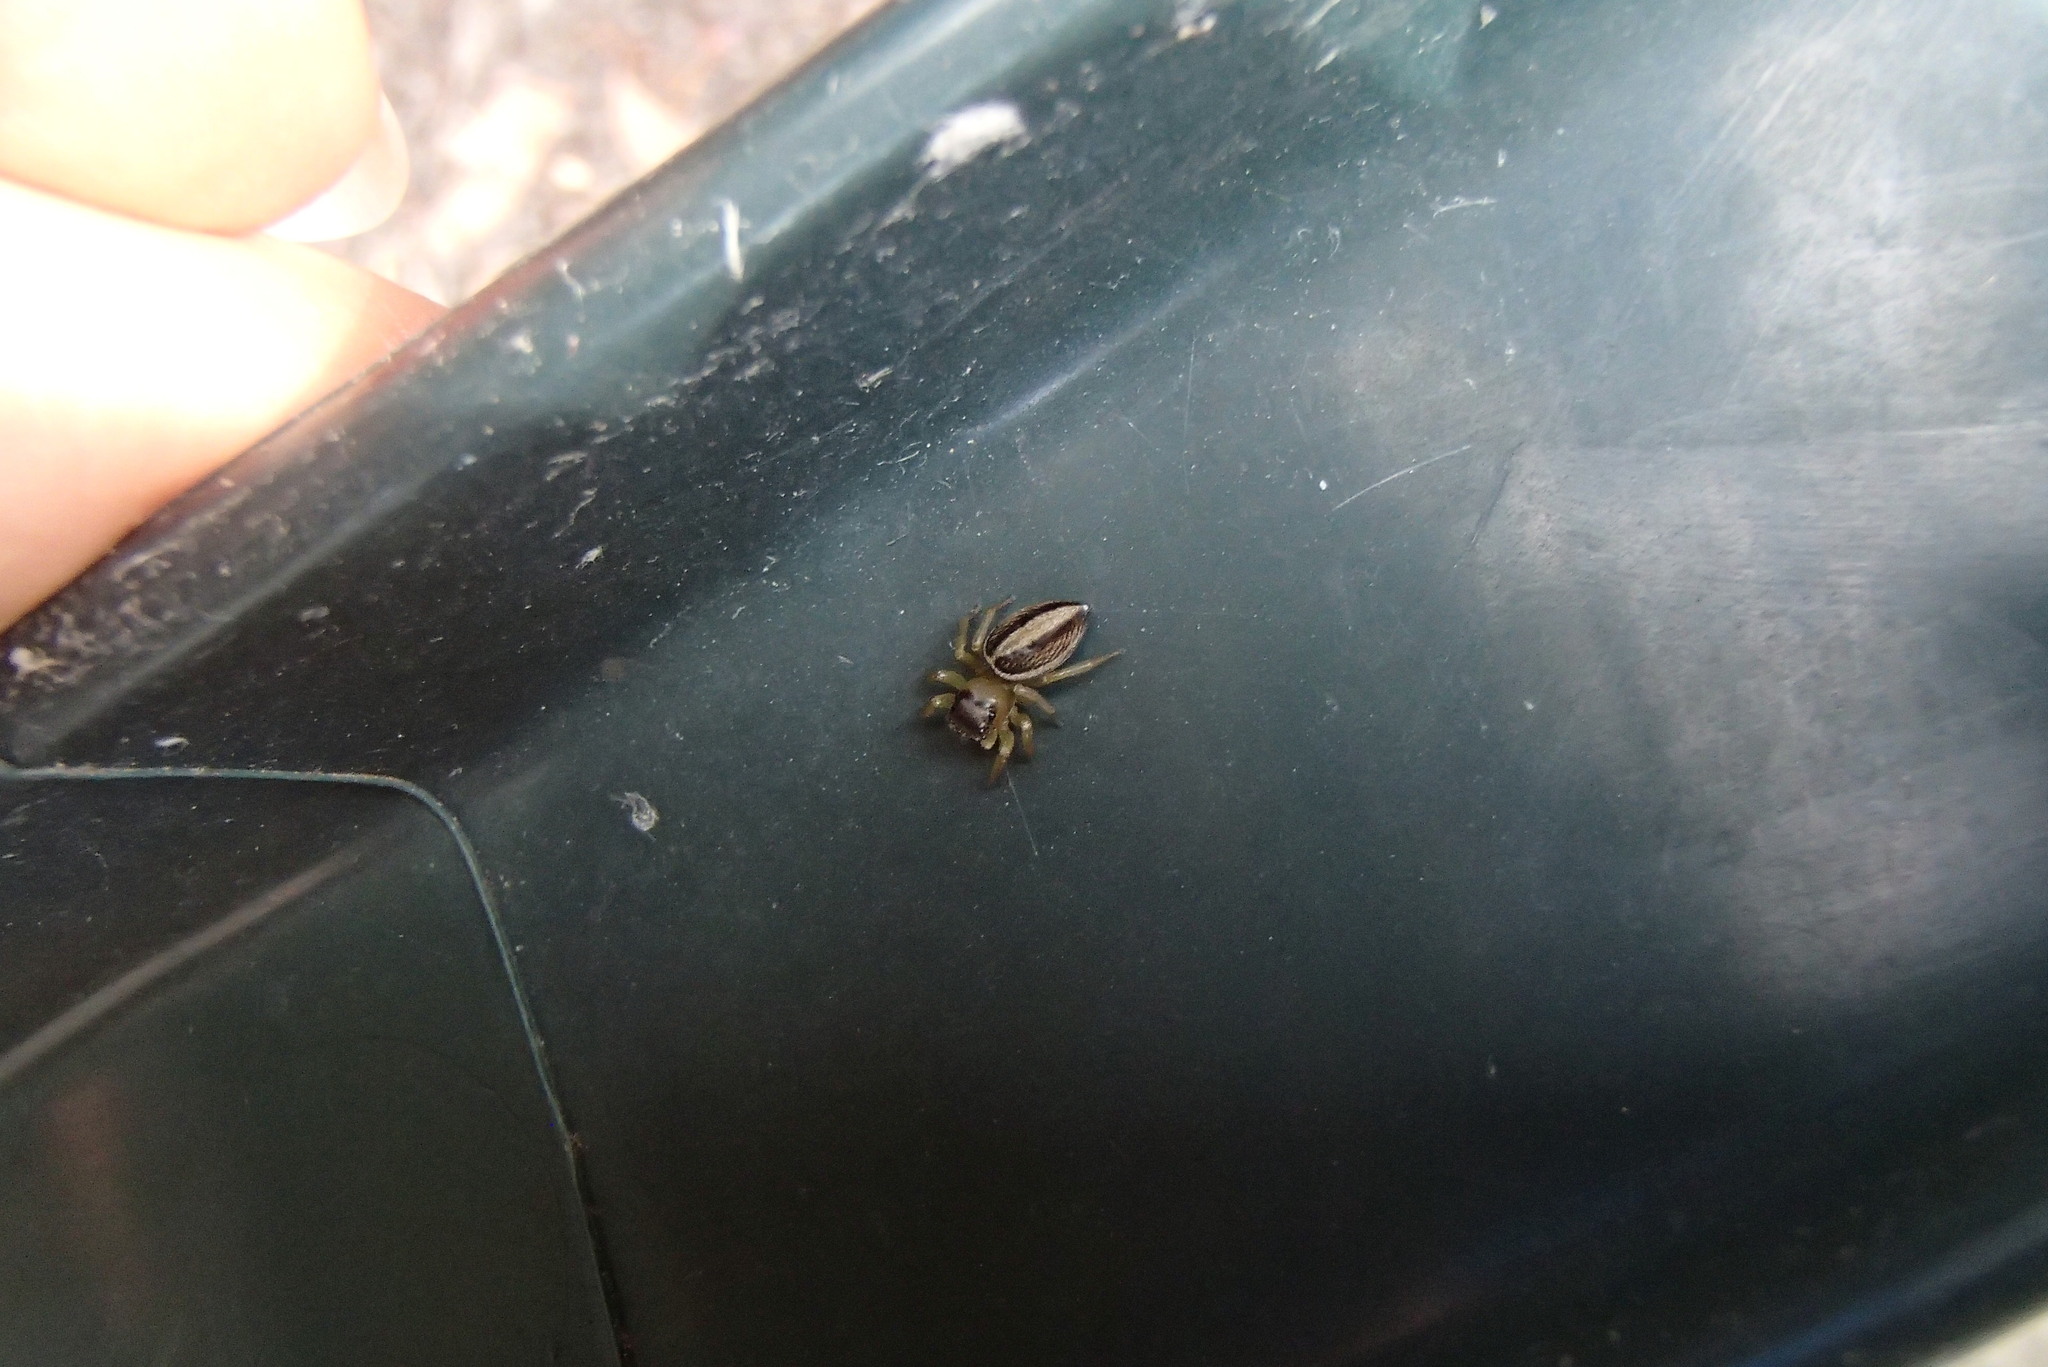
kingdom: Animalia
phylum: Arthropoda
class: Arachnida
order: Araneae
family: Salticidae
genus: Maratus
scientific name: Maratus scutulatus
